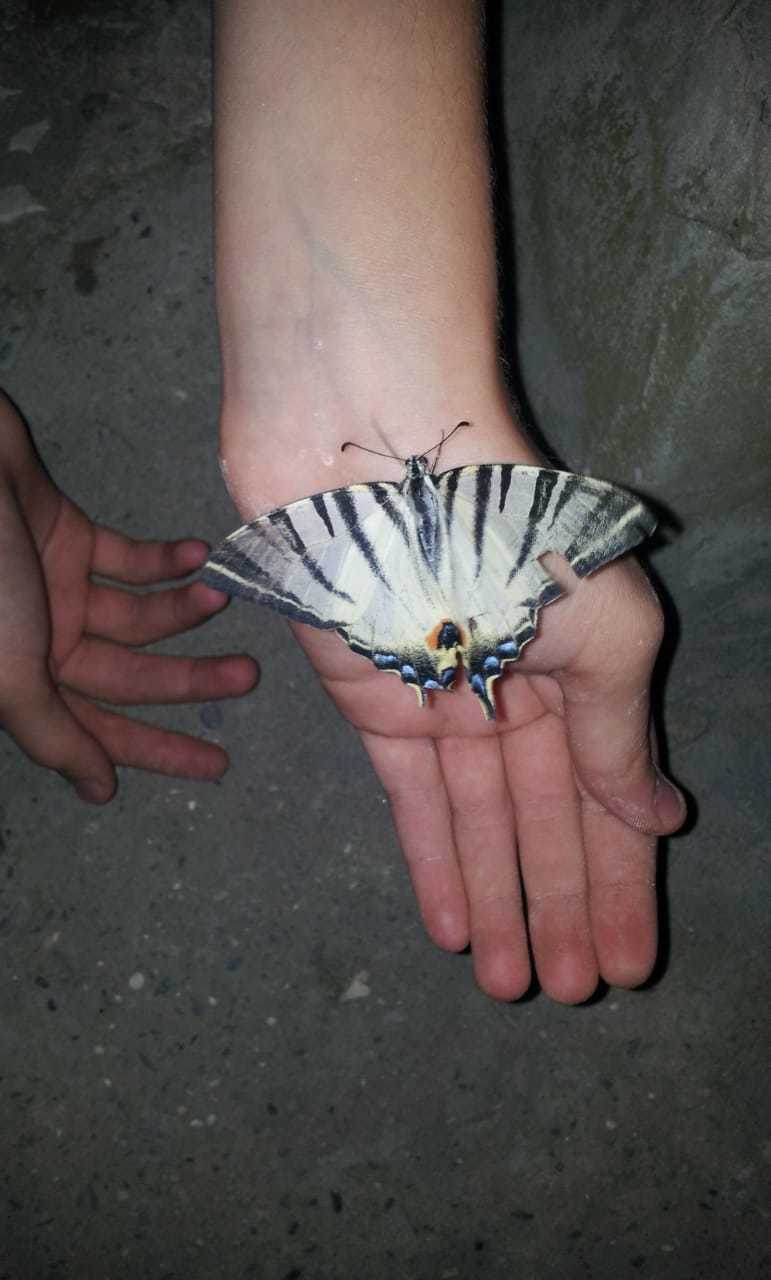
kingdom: Animalia
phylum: Arthropoda
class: Insecta
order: Lepidoptera
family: Papilionidae
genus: Iphiclides
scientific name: Iphiclides podalirius
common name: Scarce swallowtail
